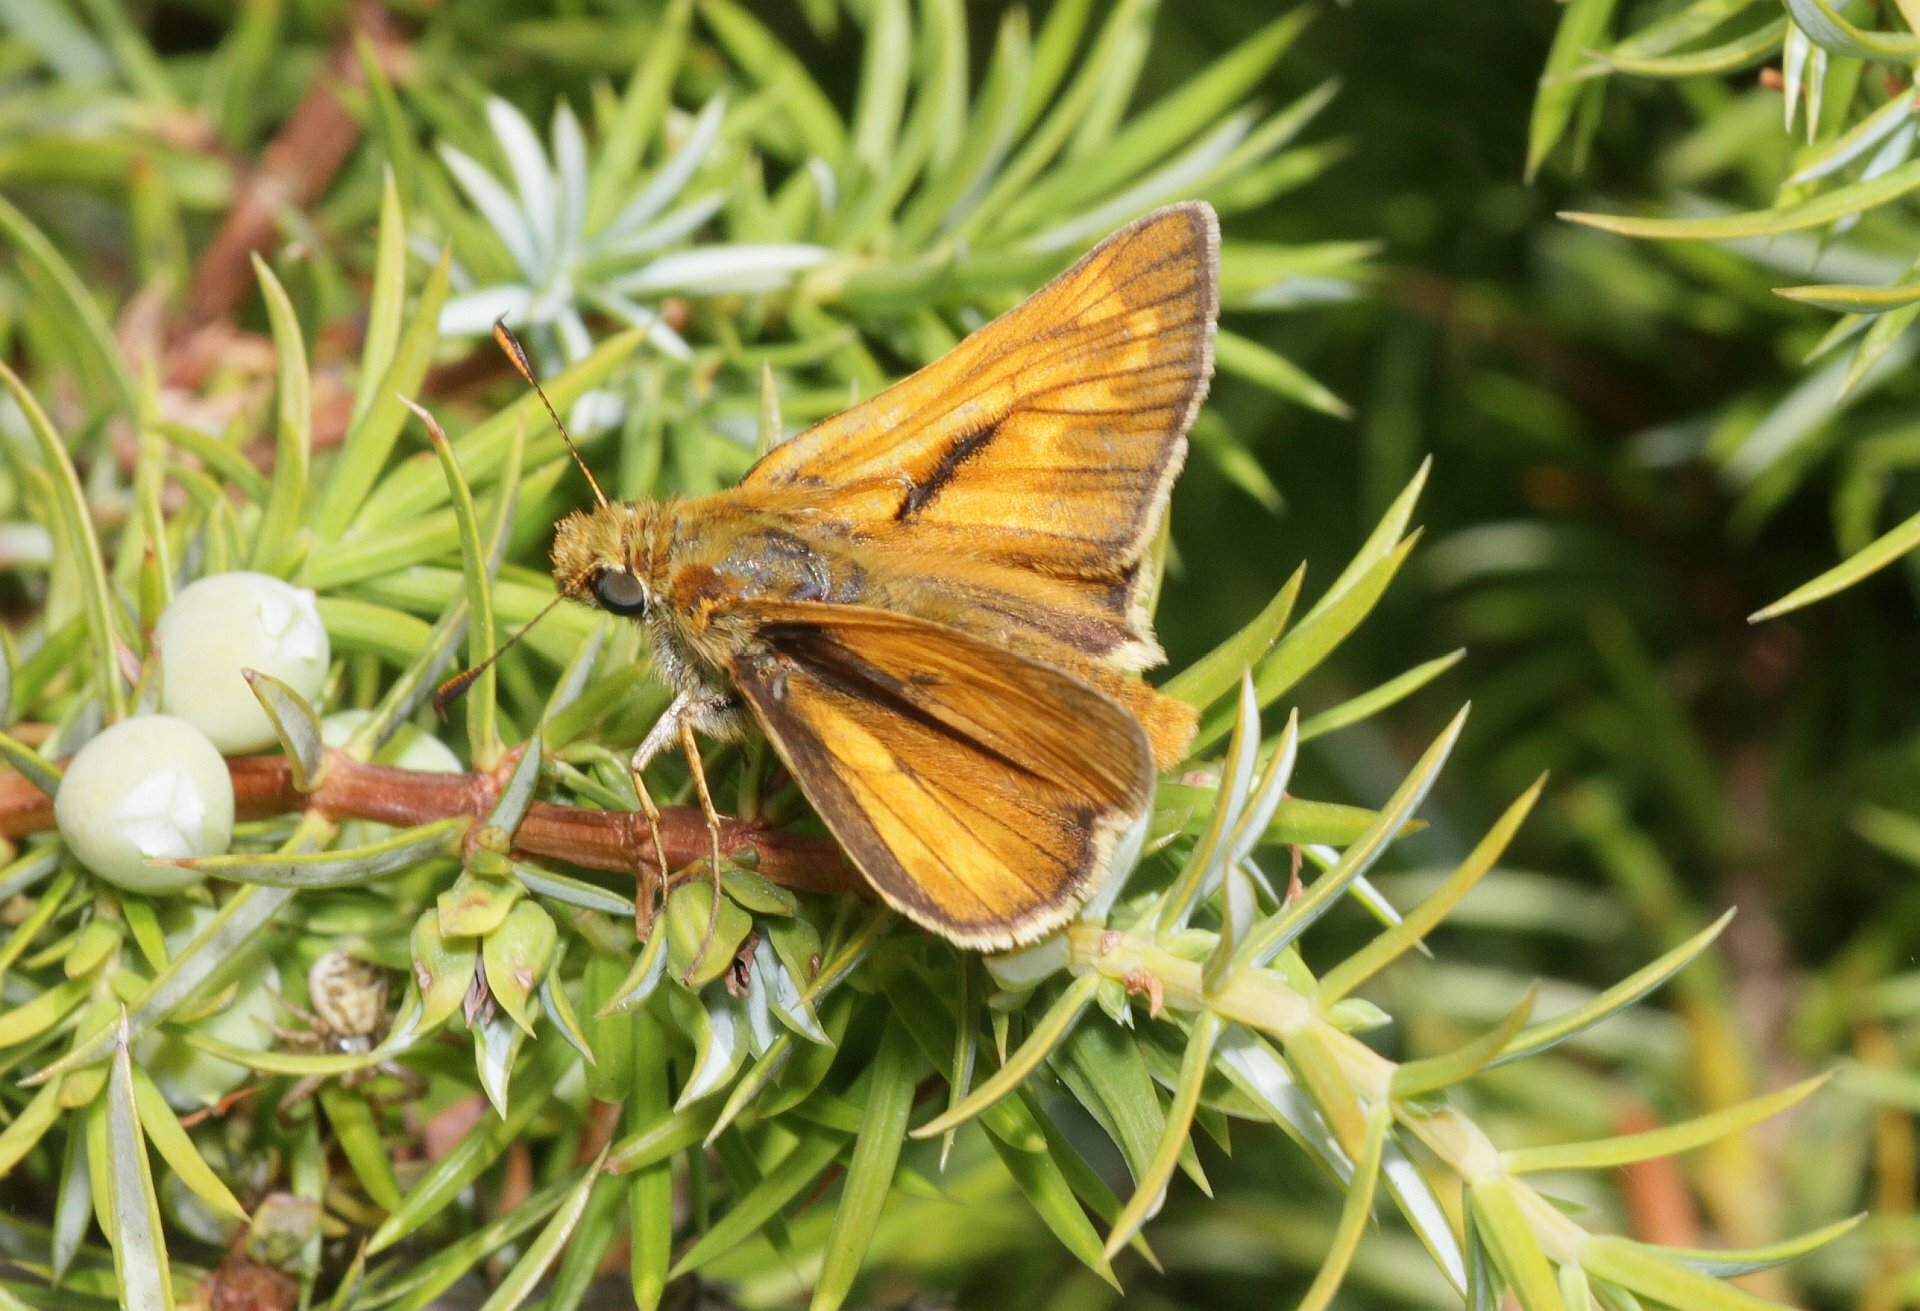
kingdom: Animalia
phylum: Arthropoda
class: Insecta
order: Lepidoptera
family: Hesperiidae
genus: Ochlodes
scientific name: Ochlodes venata
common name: Large skipper
